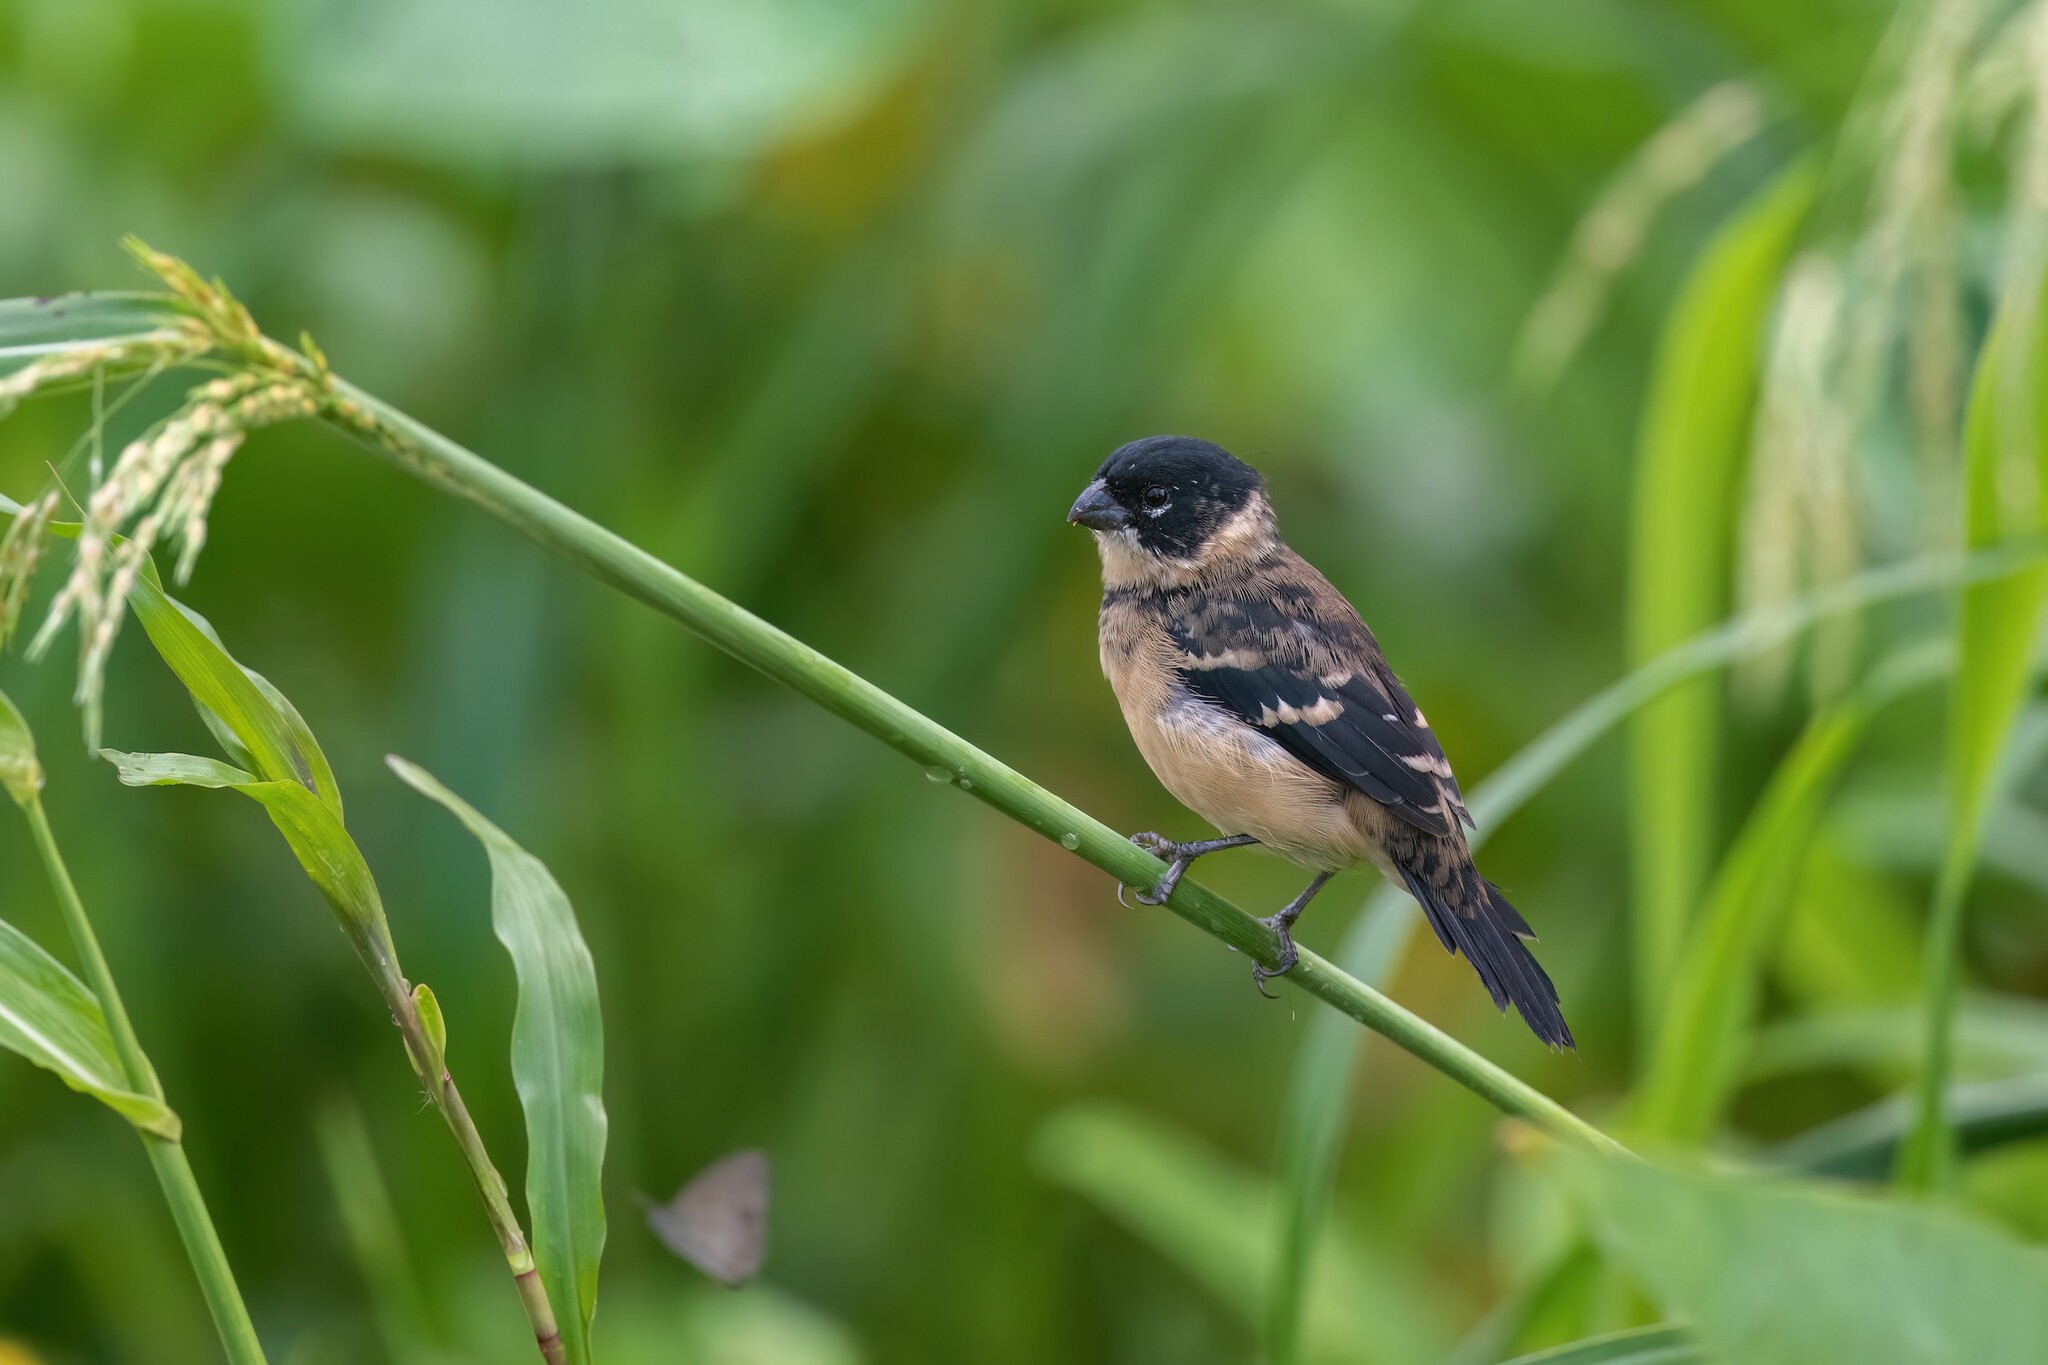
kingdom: Animalia
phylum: Chordata
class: Aves
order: Passeriformes
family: Thraupidae
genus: Sporophila
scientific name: Sporophila morelleti
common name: Morelet's seedeater
